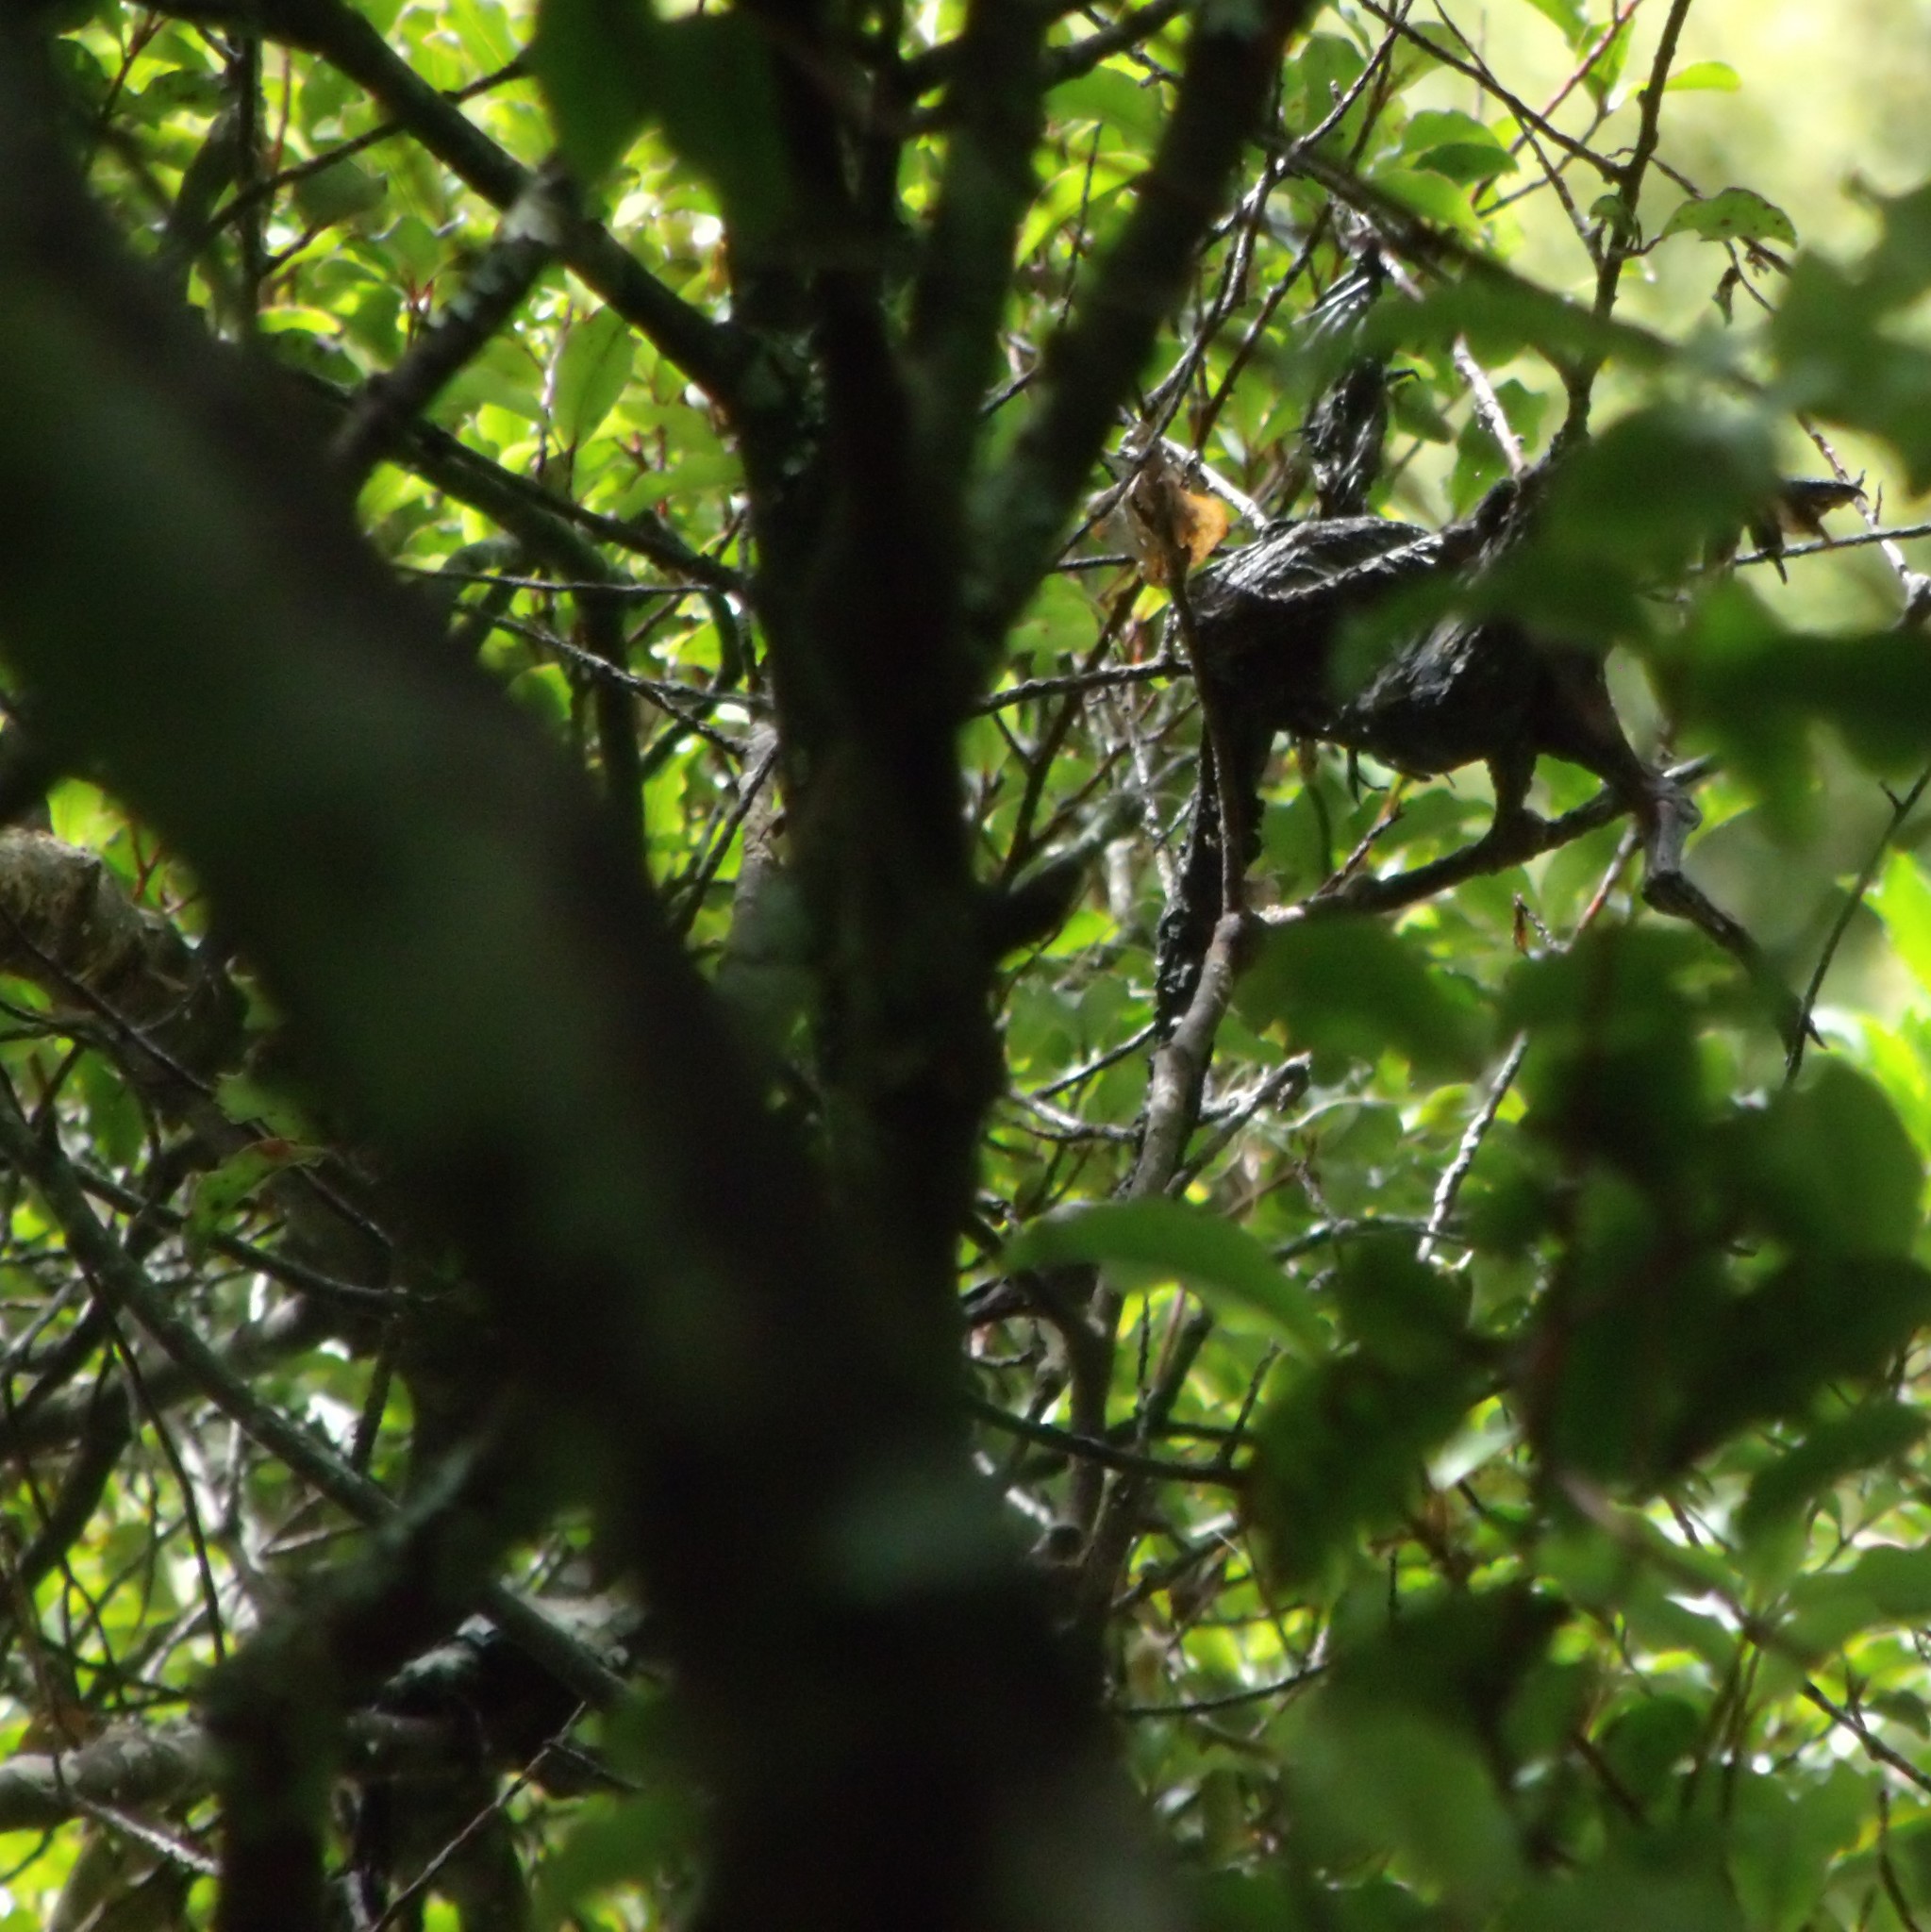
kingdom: Animalia
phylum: Chordata
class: Aves
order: Suliformes
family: Phalacrocoracidae
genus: Microcarbo
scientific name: Microcarbo melanoleucos
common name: Little pied cormorant
